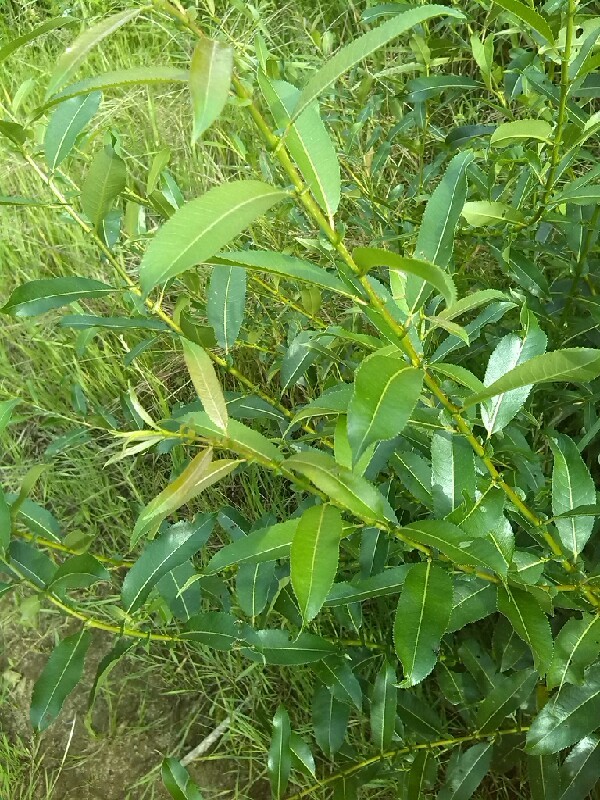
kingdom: Plantae
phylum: Tracheophyta
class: Magnoliopsida
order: Malpighiales
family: Salicaceae
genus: Salix
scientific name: Salix pentandra
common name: Bay willow
